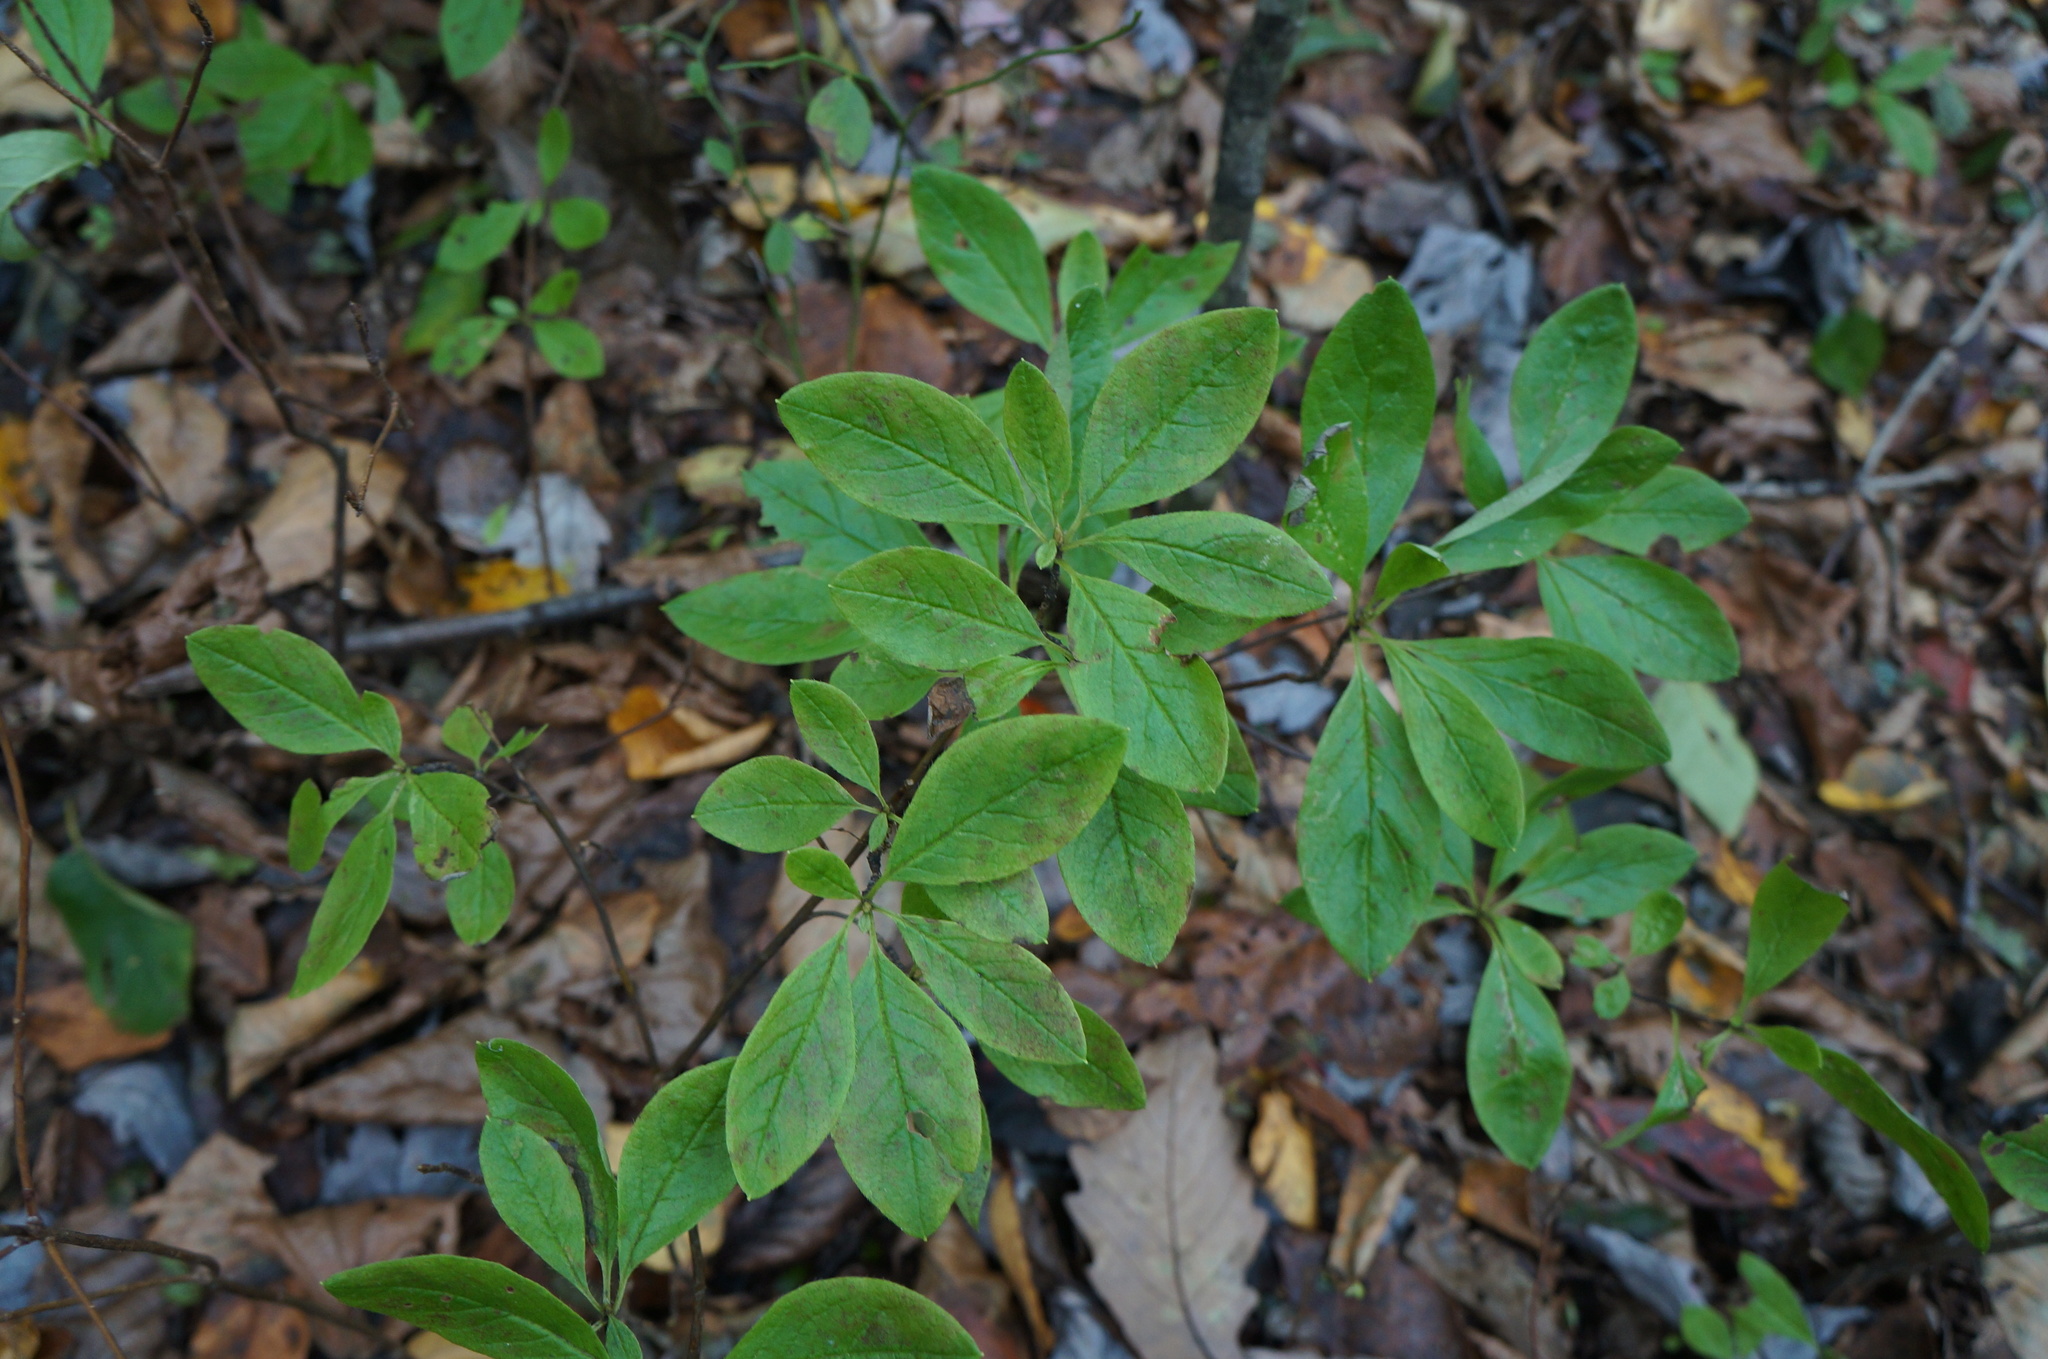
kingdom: Plantae
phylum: Tracheophyta
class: Magnoliopsida
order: Ericales
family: Ericaceae
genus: Rhododendron
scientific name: Rhododendron pilosum
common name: Hairy minniebush
